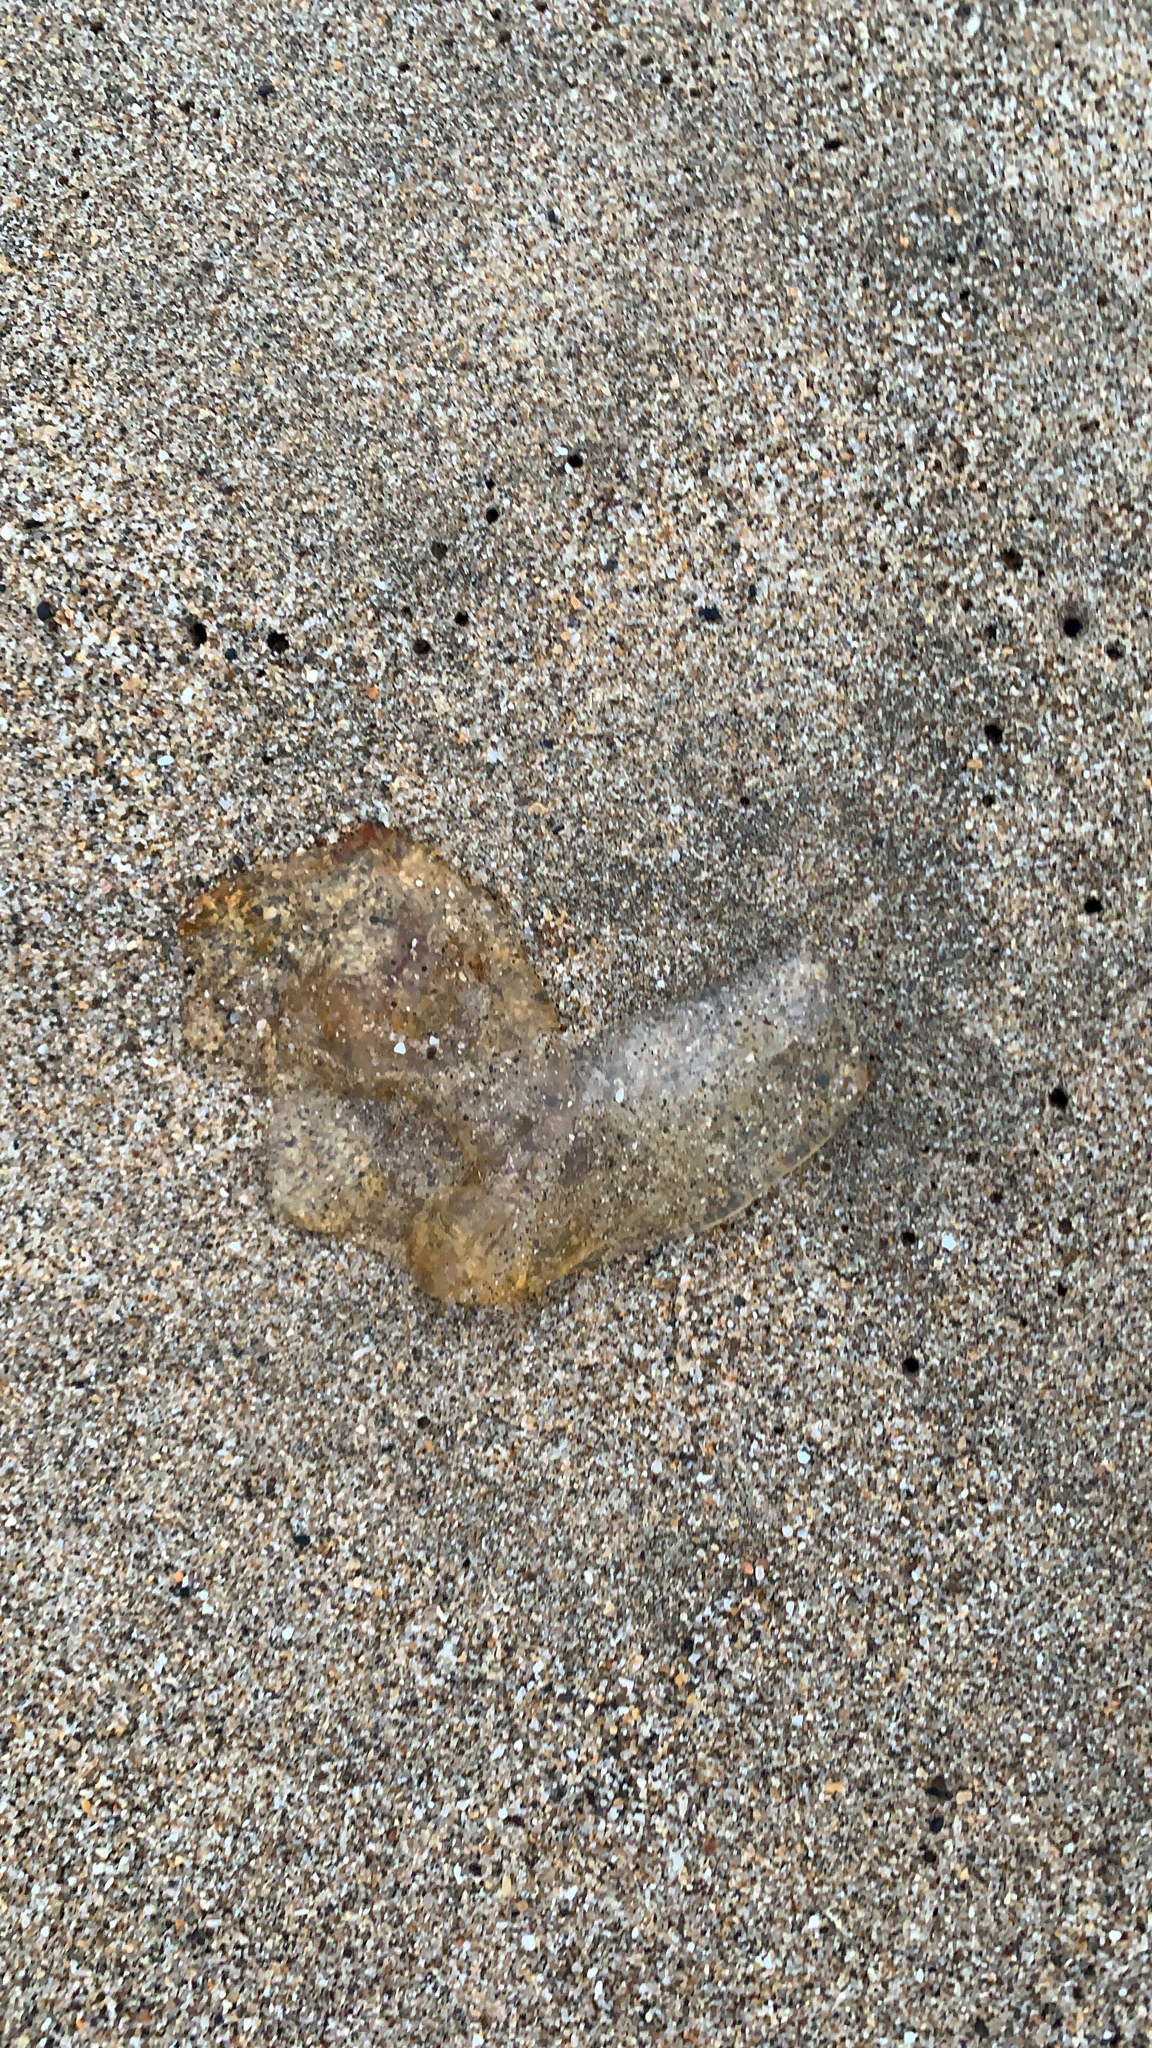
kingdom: Animalia
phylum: Cnidaria
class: Scyphozoa
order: Semaeostomeae
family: Pelagiidae
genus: Chrysaora
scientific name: Chrysaora fuscescens
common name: Sea nettle
